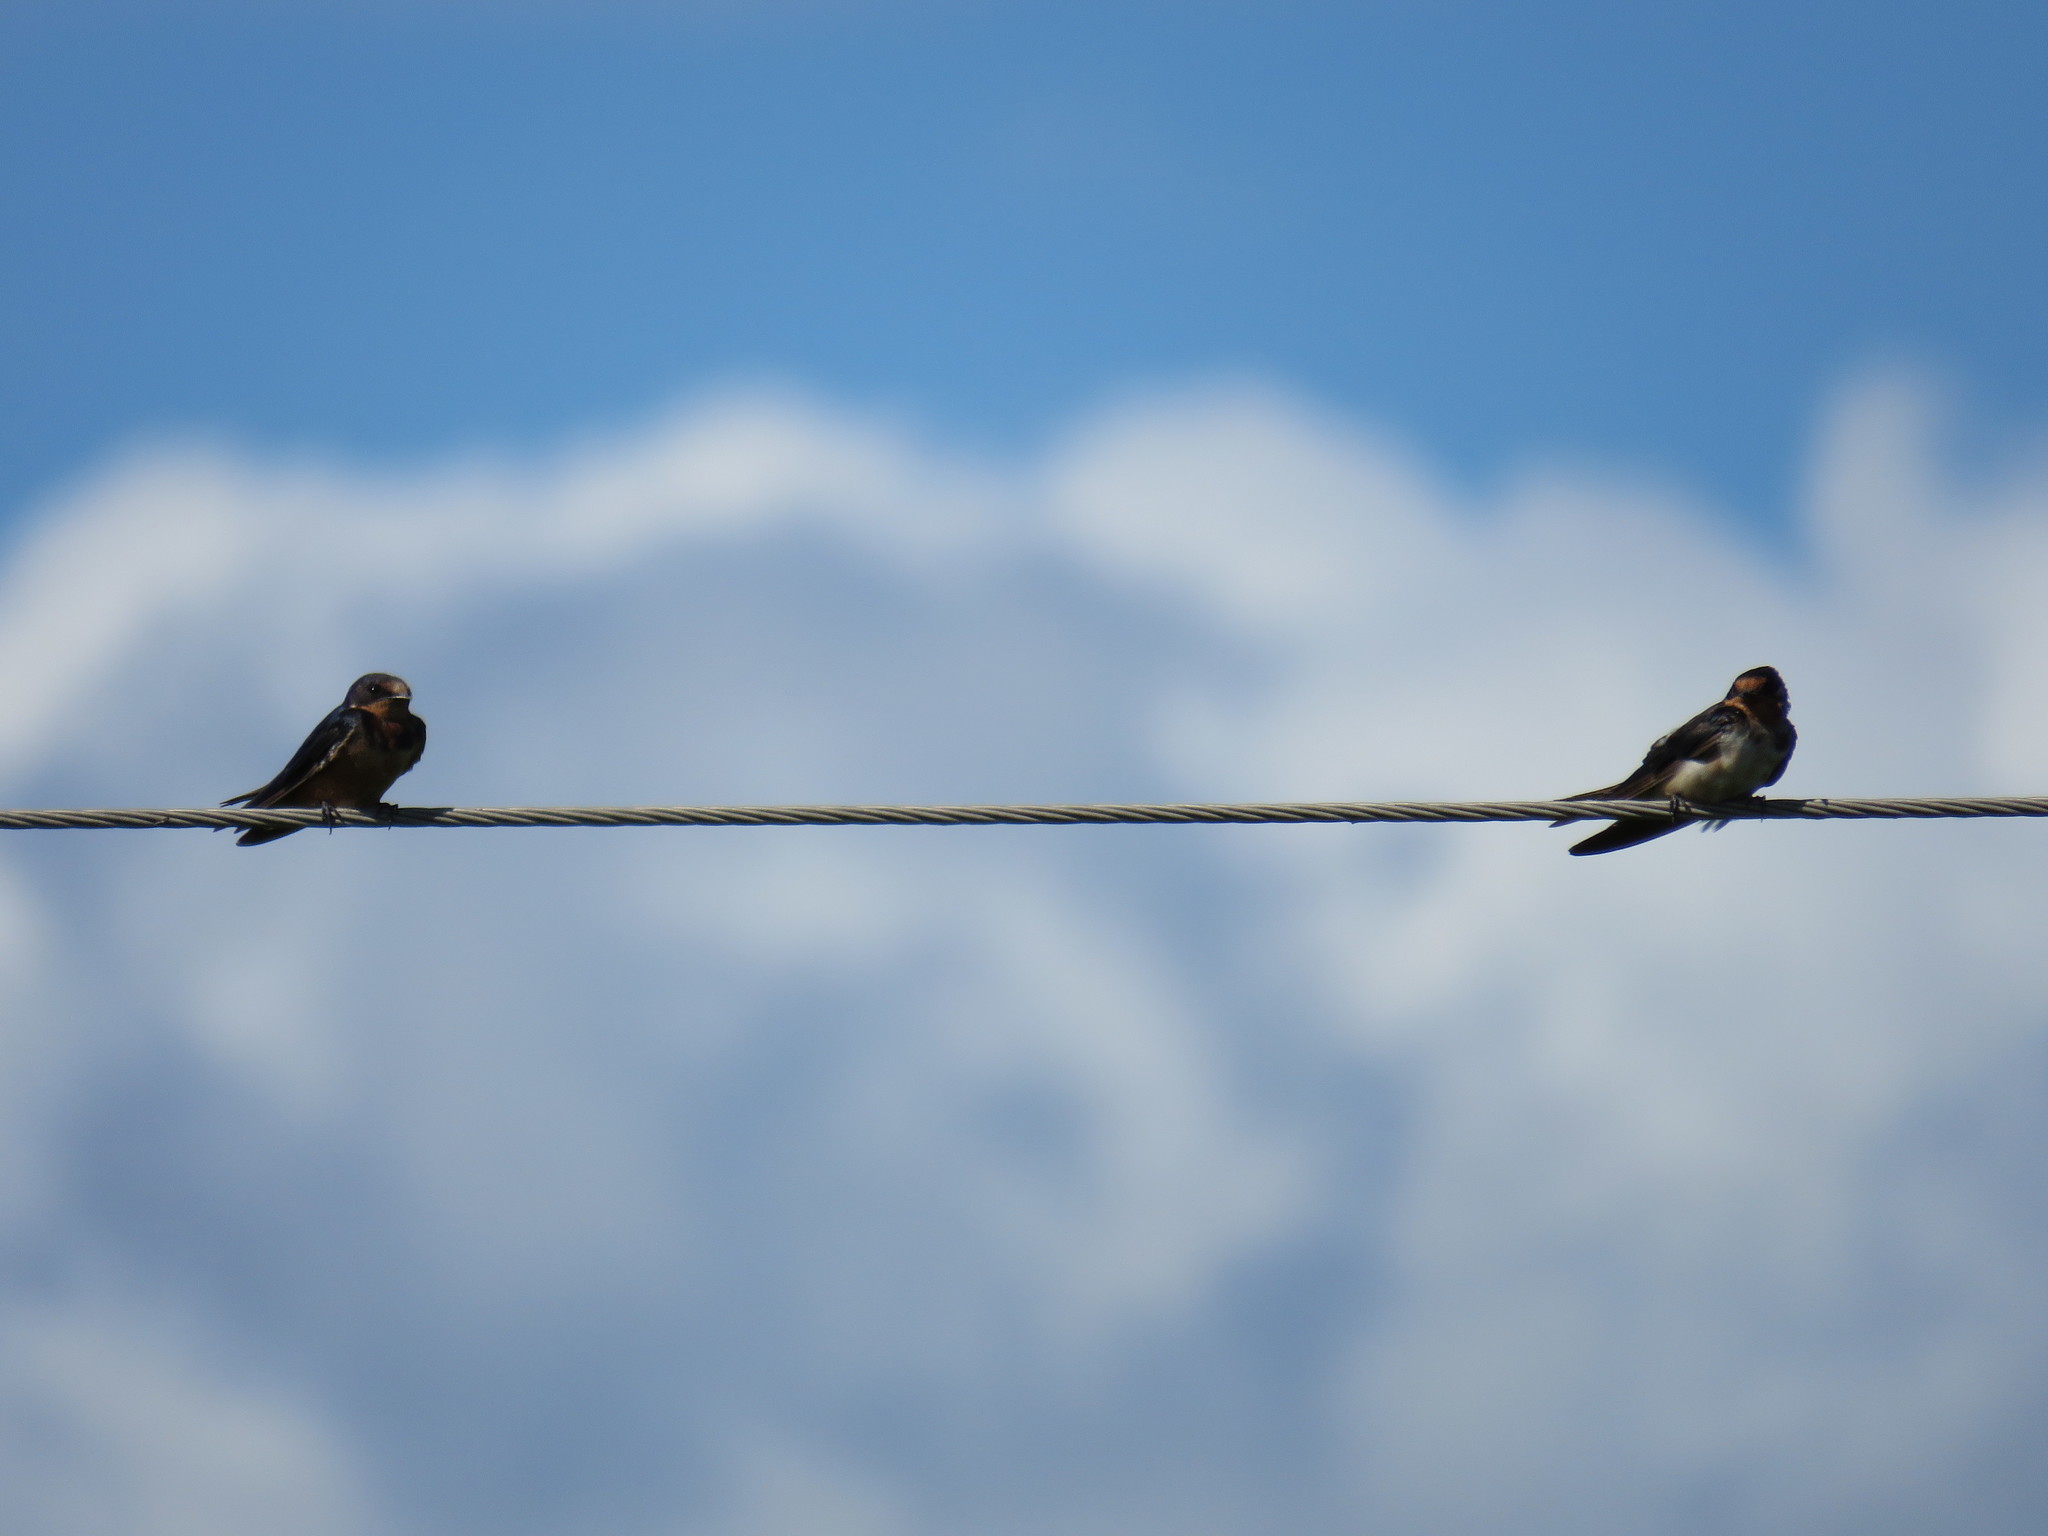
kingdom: Animalia
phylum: Chordata
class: Aves
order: Passeriformes
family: Hirundinidae
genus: Hirundo
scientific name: Hirundo rustica
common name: Barn swallow
